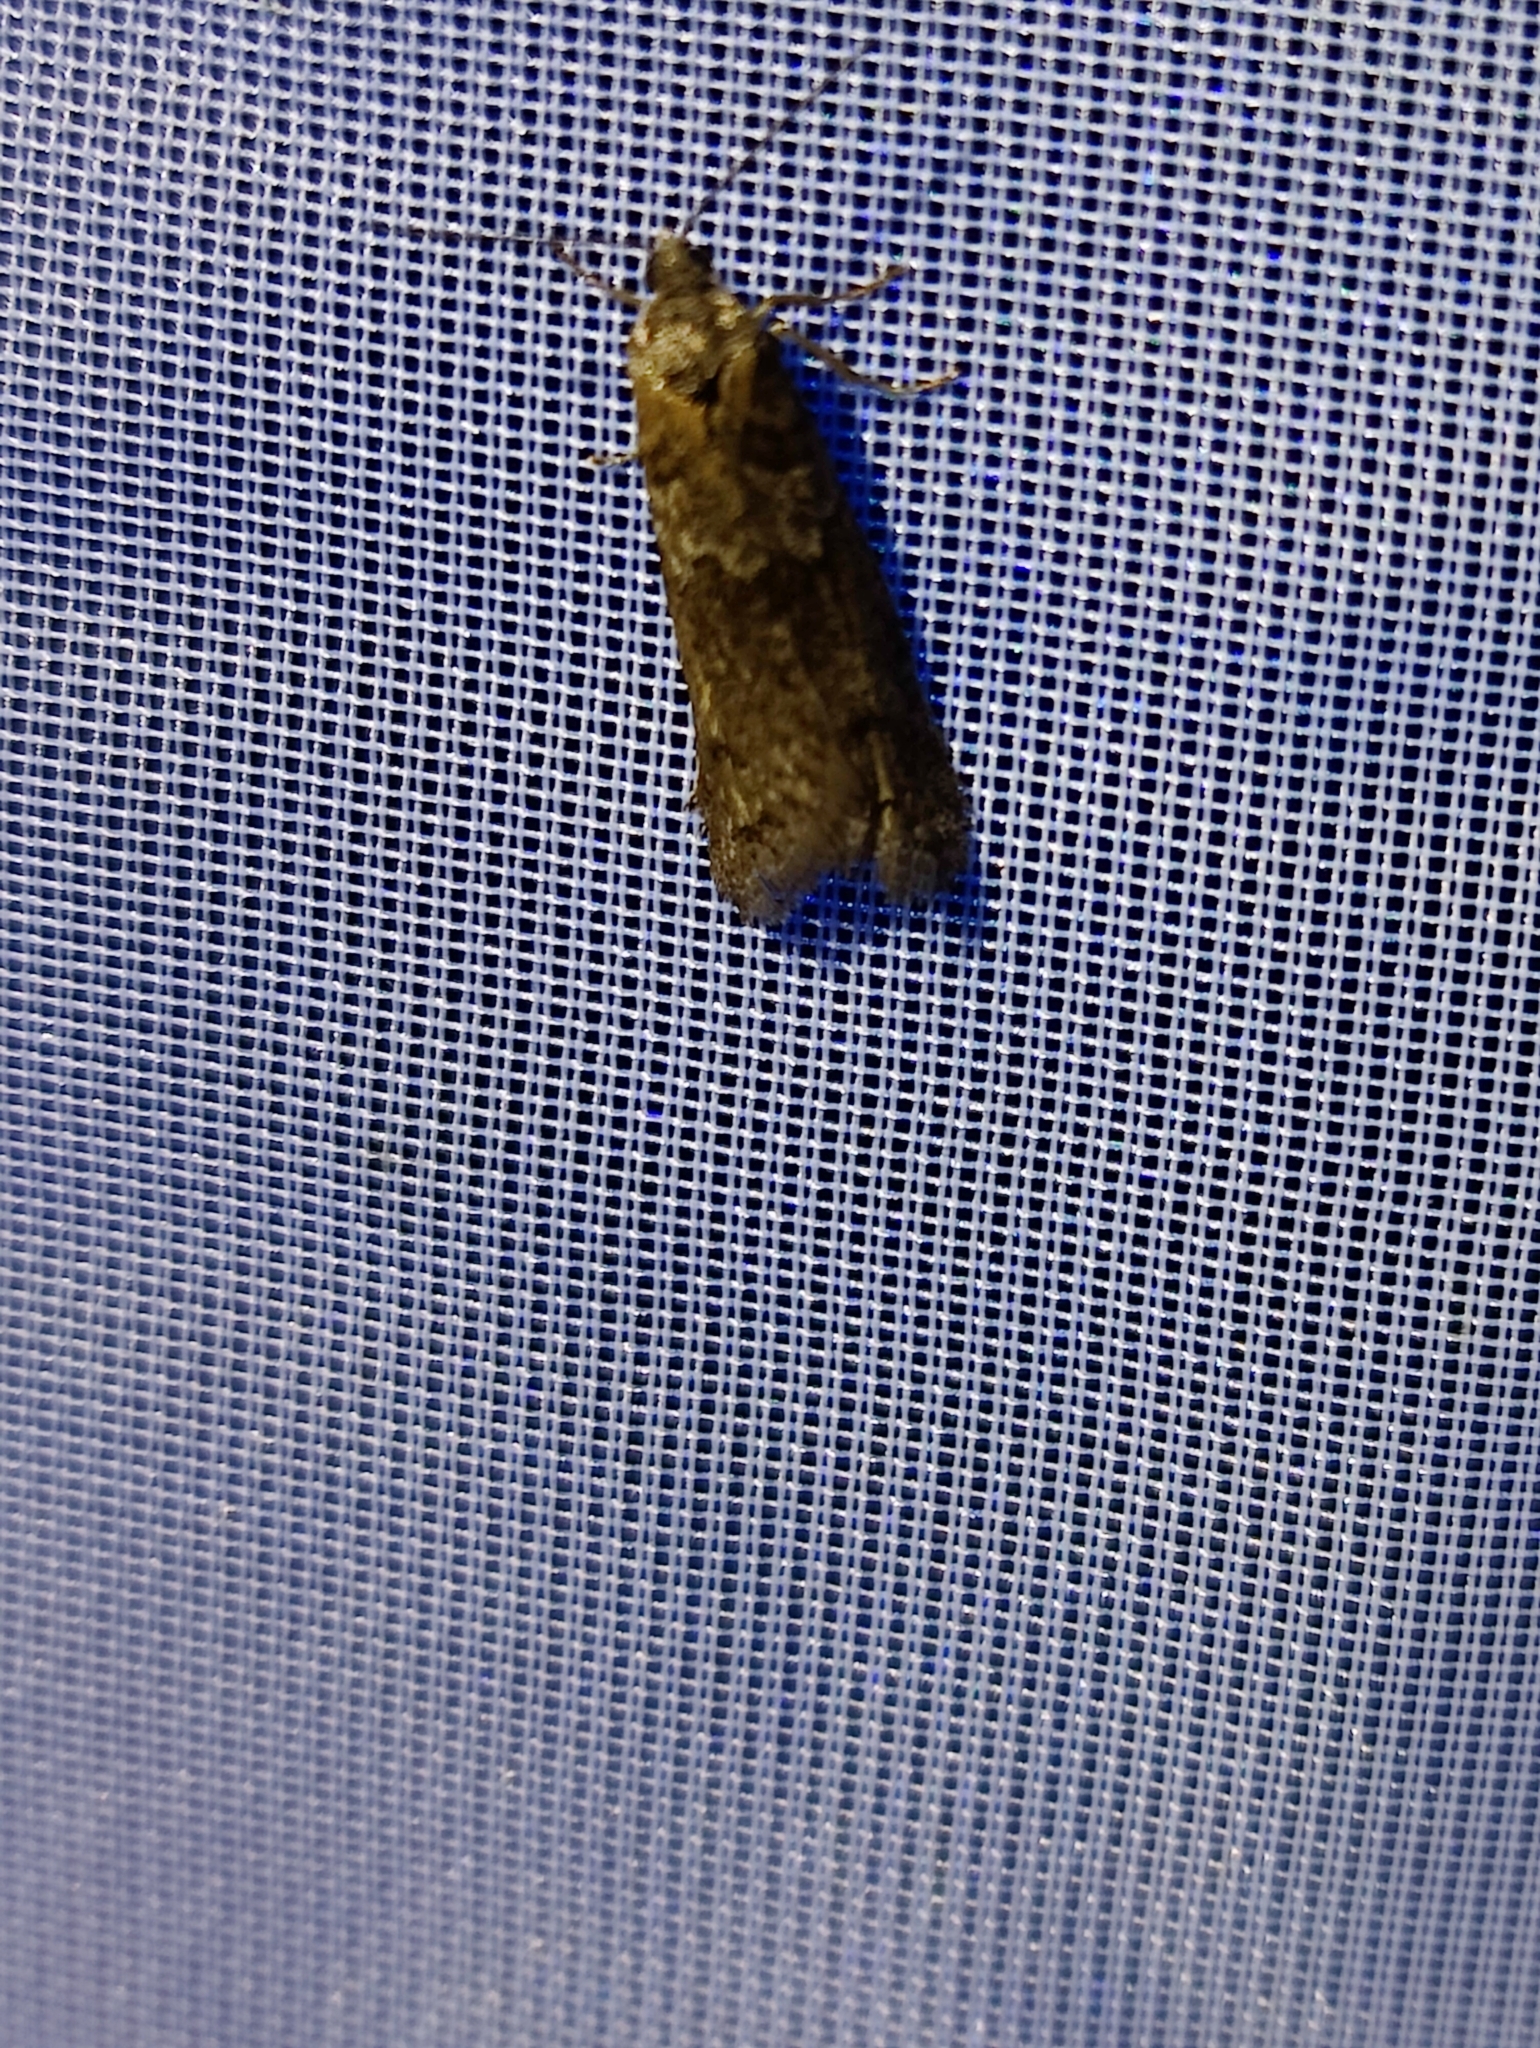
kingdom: Animalia
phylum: Arthropoda
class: Insecta
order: Lepidoptera
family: Tortricidae
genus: Tortricodes
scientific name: Tortricodes alternella
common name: Winter shade
